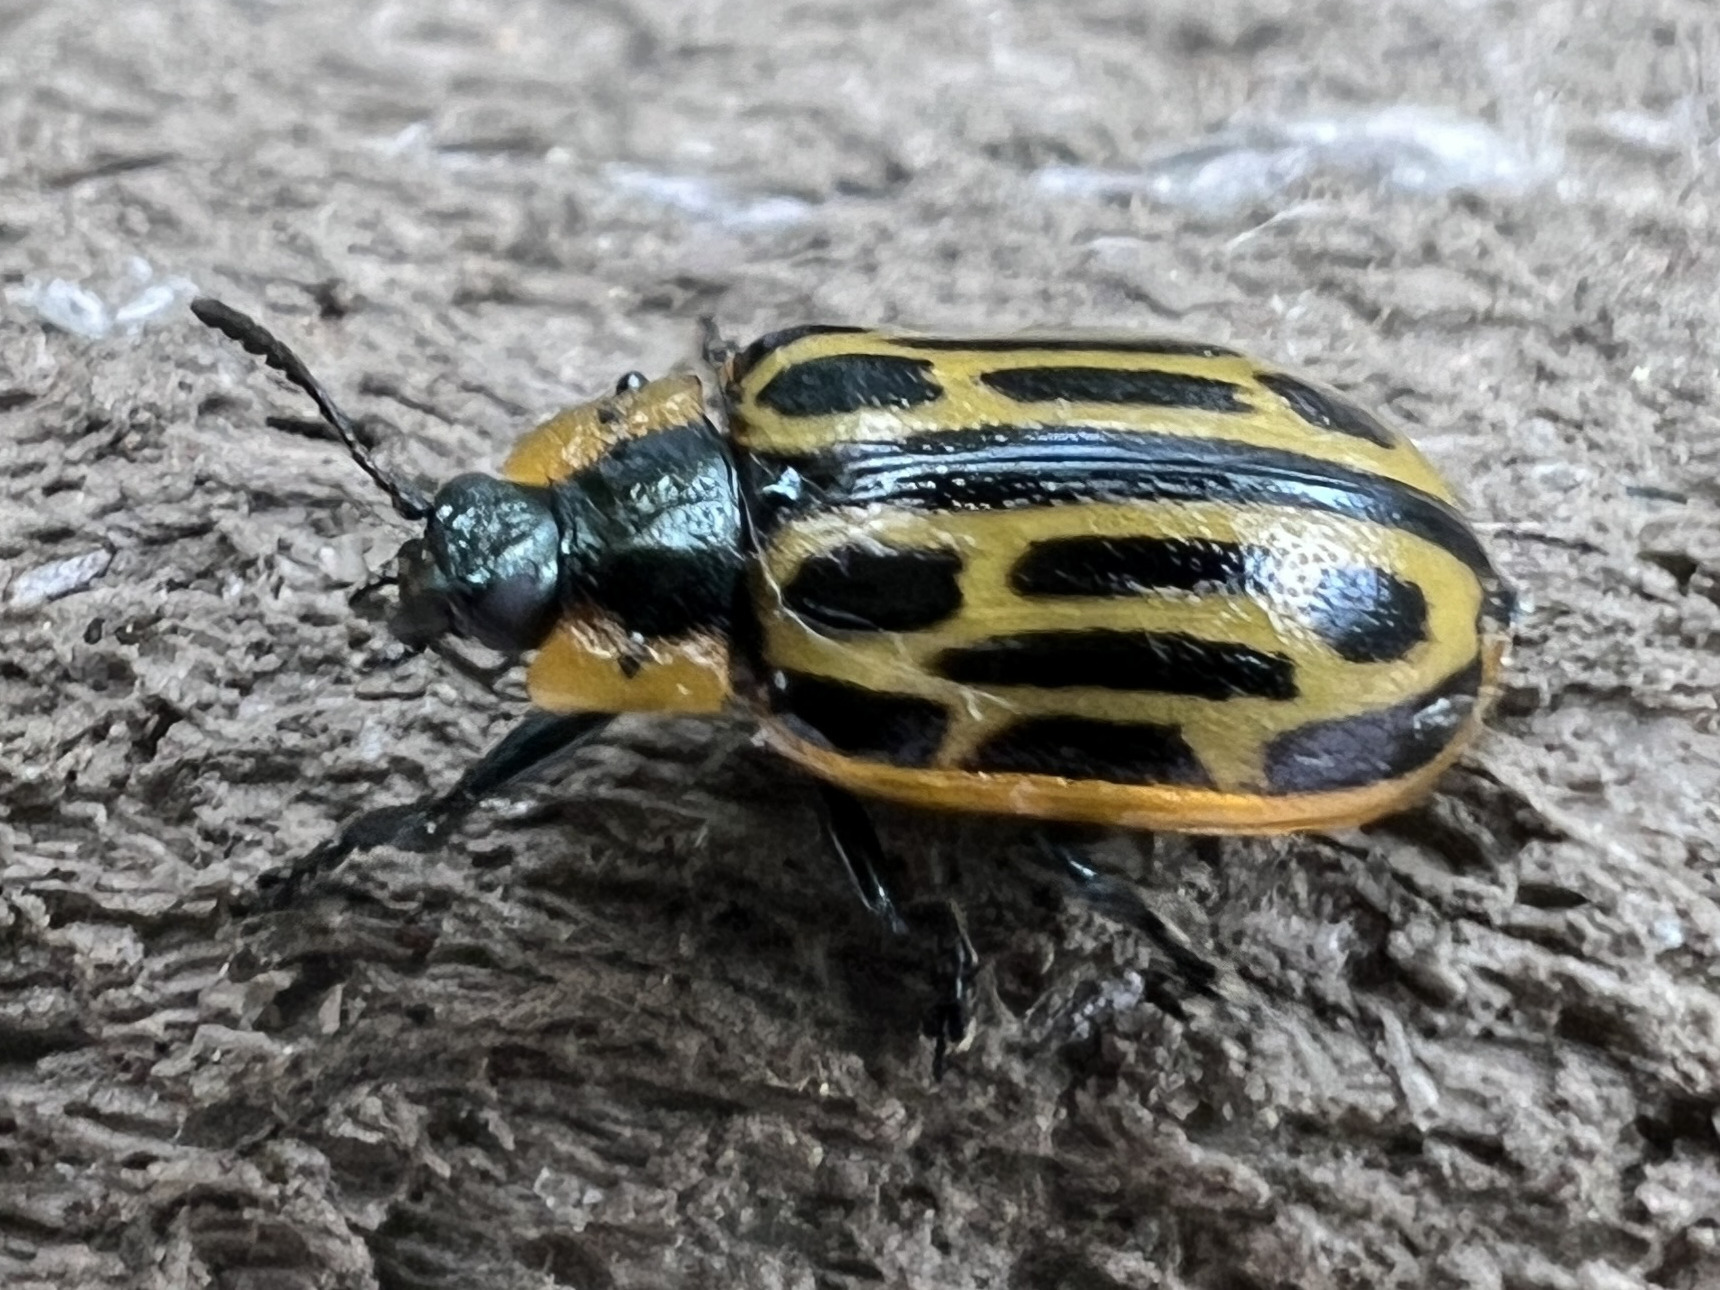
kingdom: Animalia
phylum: Arthropoda
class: Insecta
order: Coleoptera
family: Chrysomelidae
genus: Aethiopocassis
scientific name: Aethiopocassis scripta
